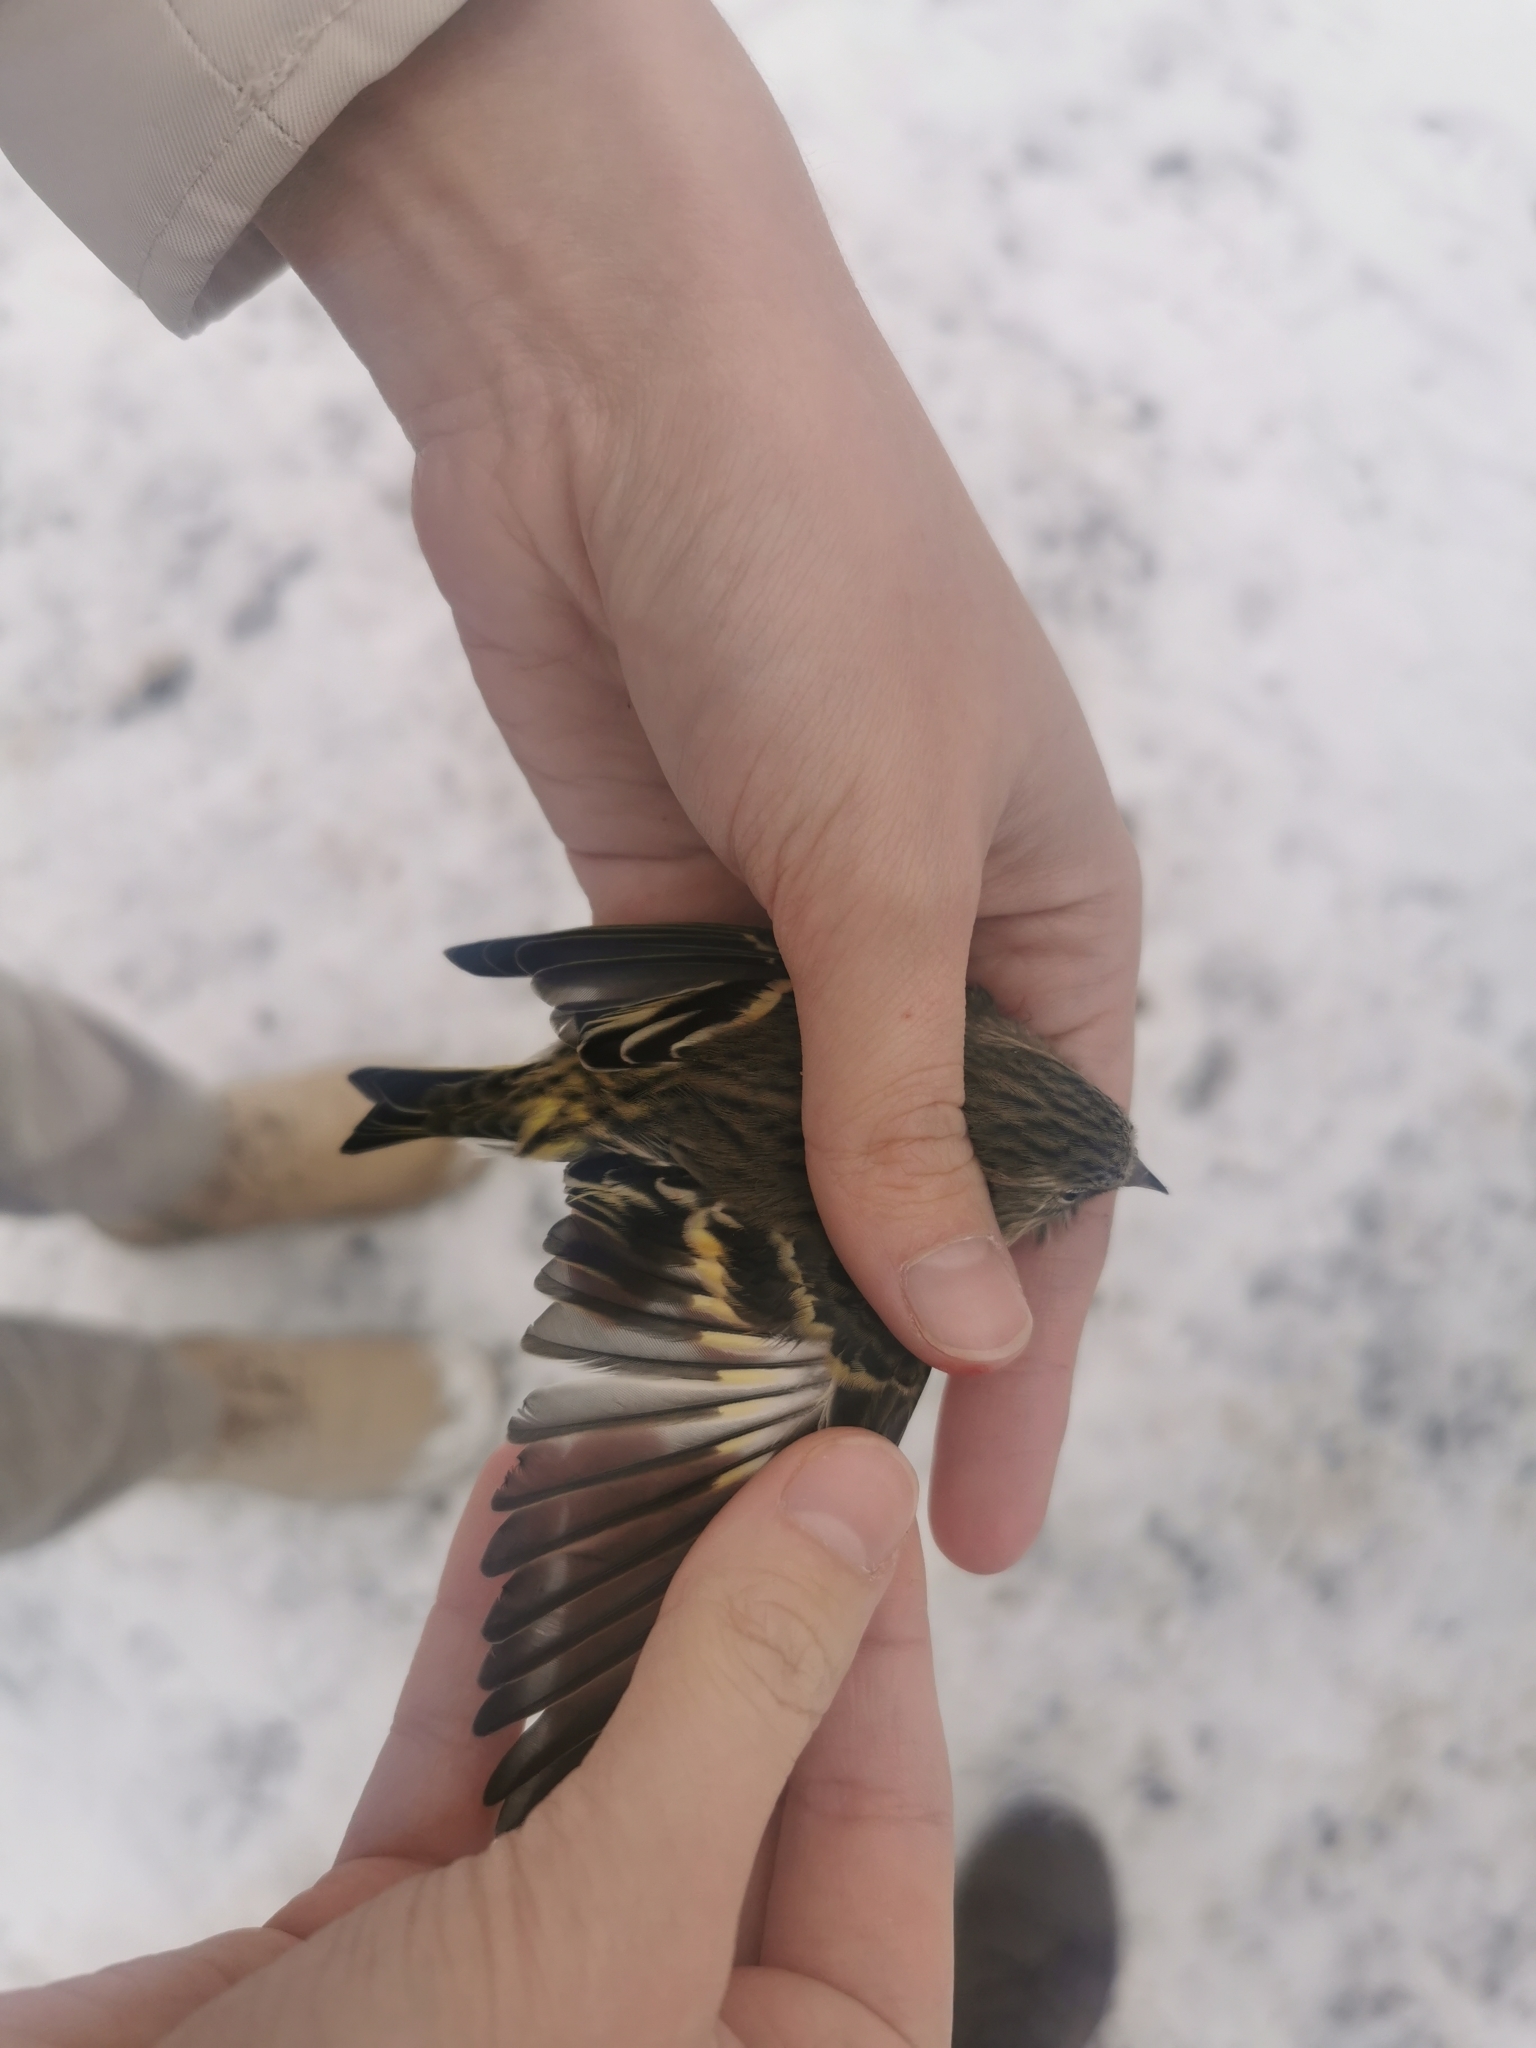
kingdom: Animalia
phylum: Chordata
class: Aves
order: Passeriformes
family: Fringillidae
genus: Spinus
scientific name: Spinus spinus
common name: Eurasian siskin
